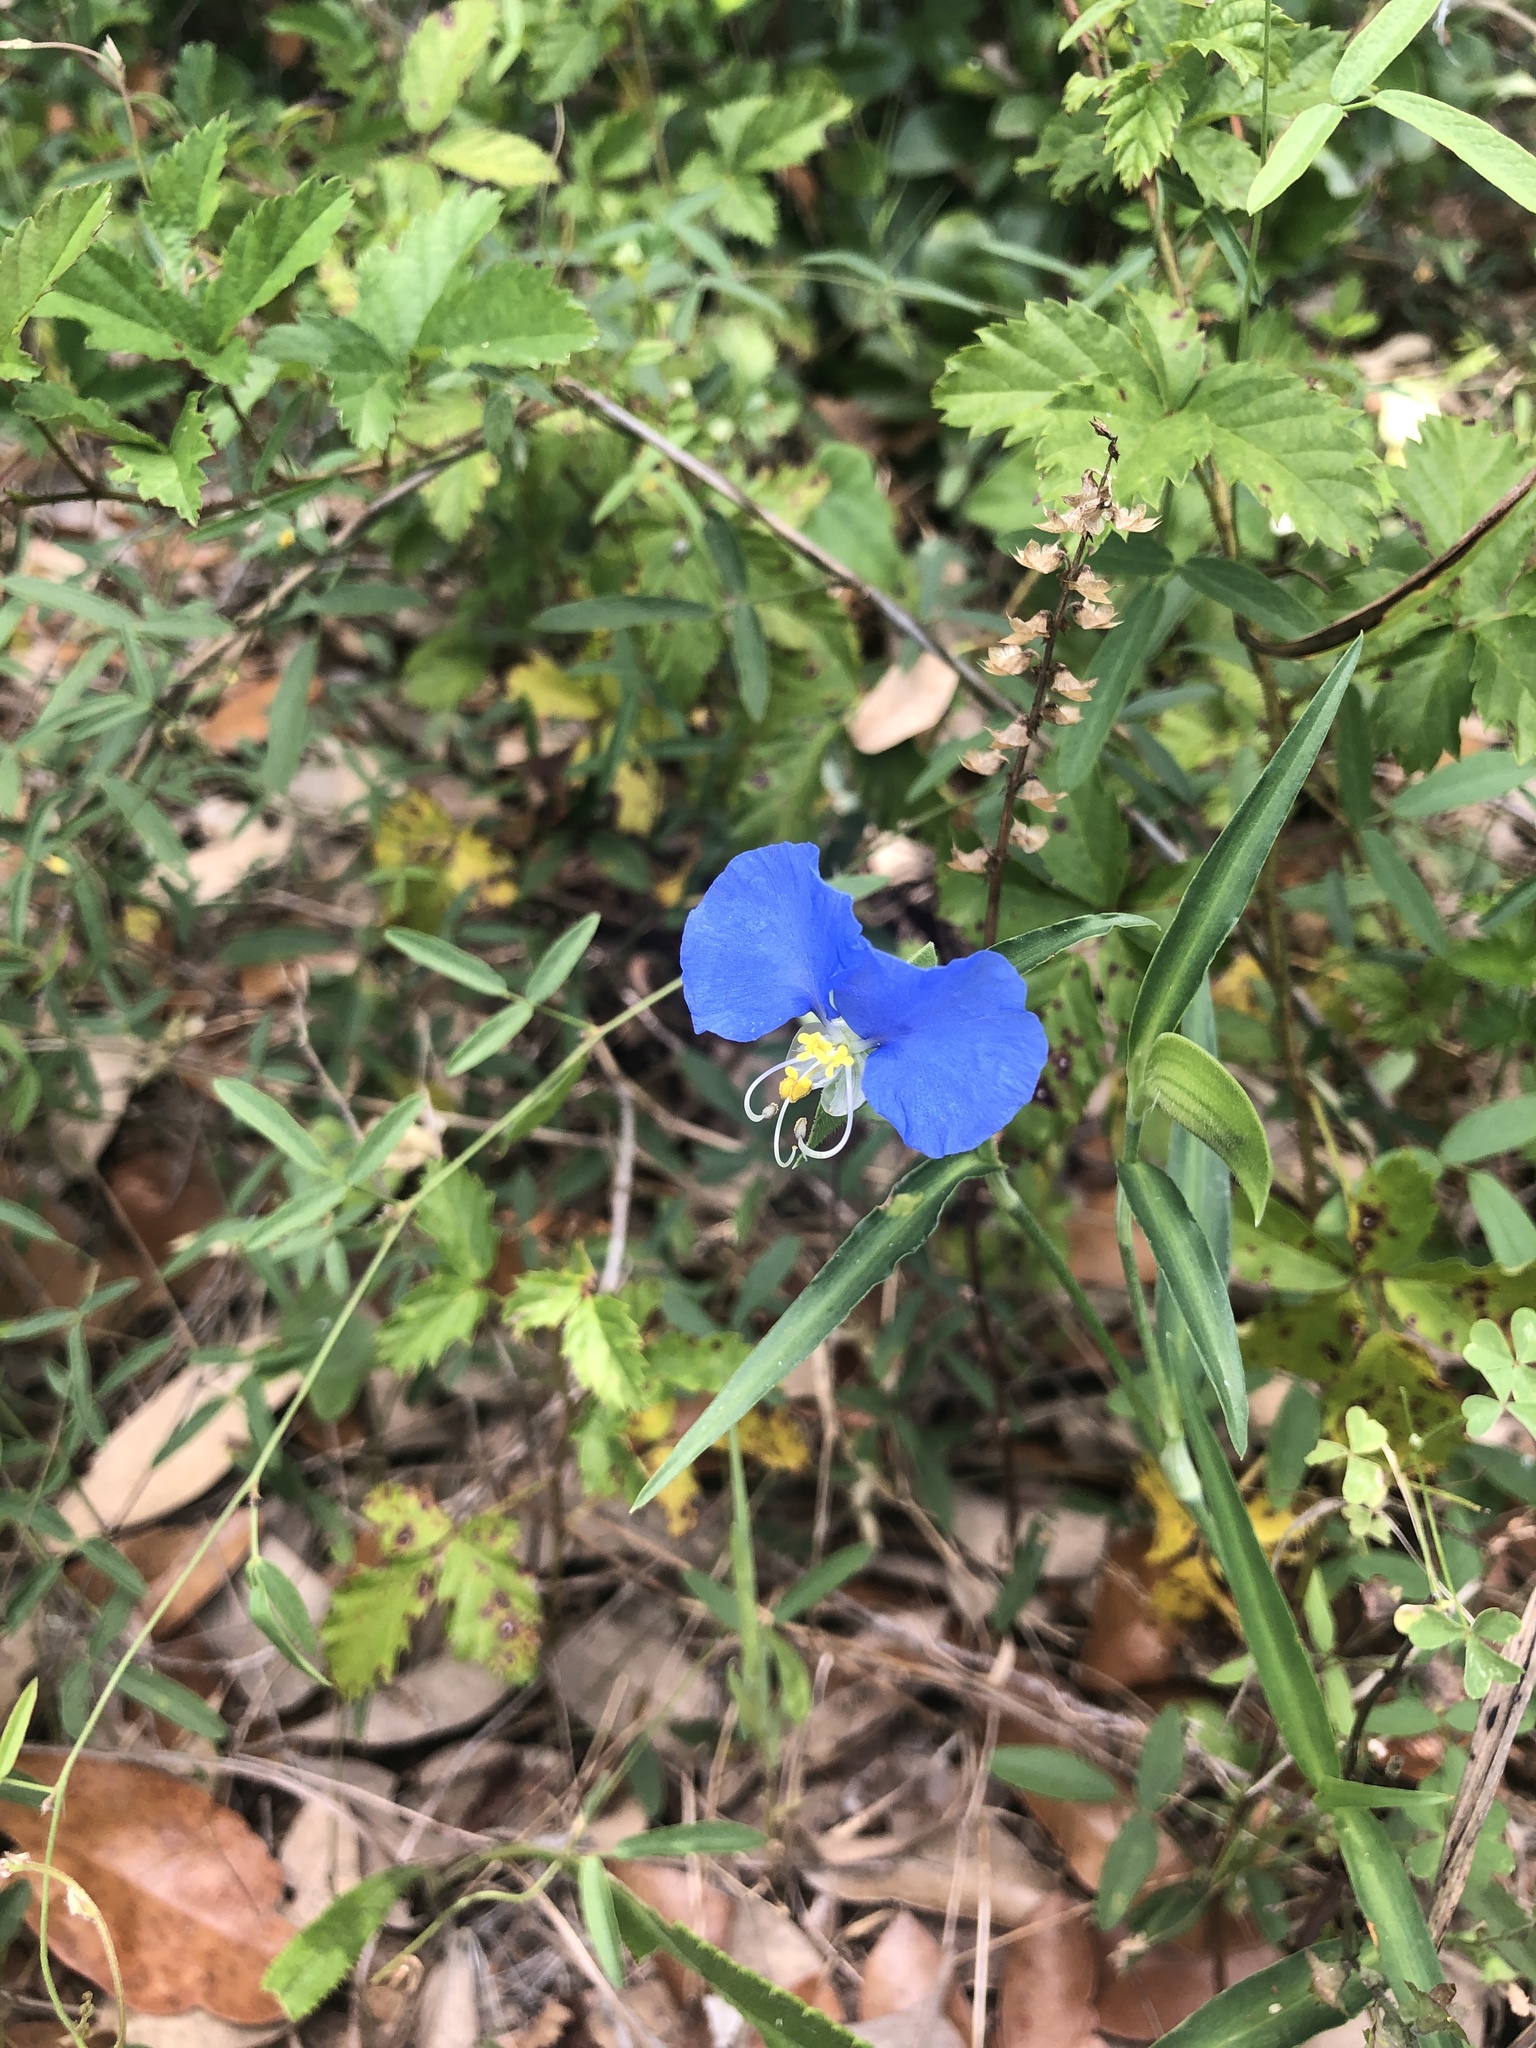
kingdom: Plantae
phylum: Tracheophyta
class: Liliopsida
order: Commelinales
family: Commelinaceae
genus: Commelina
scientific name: Commelina erecta
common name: Blousel blommetjie
